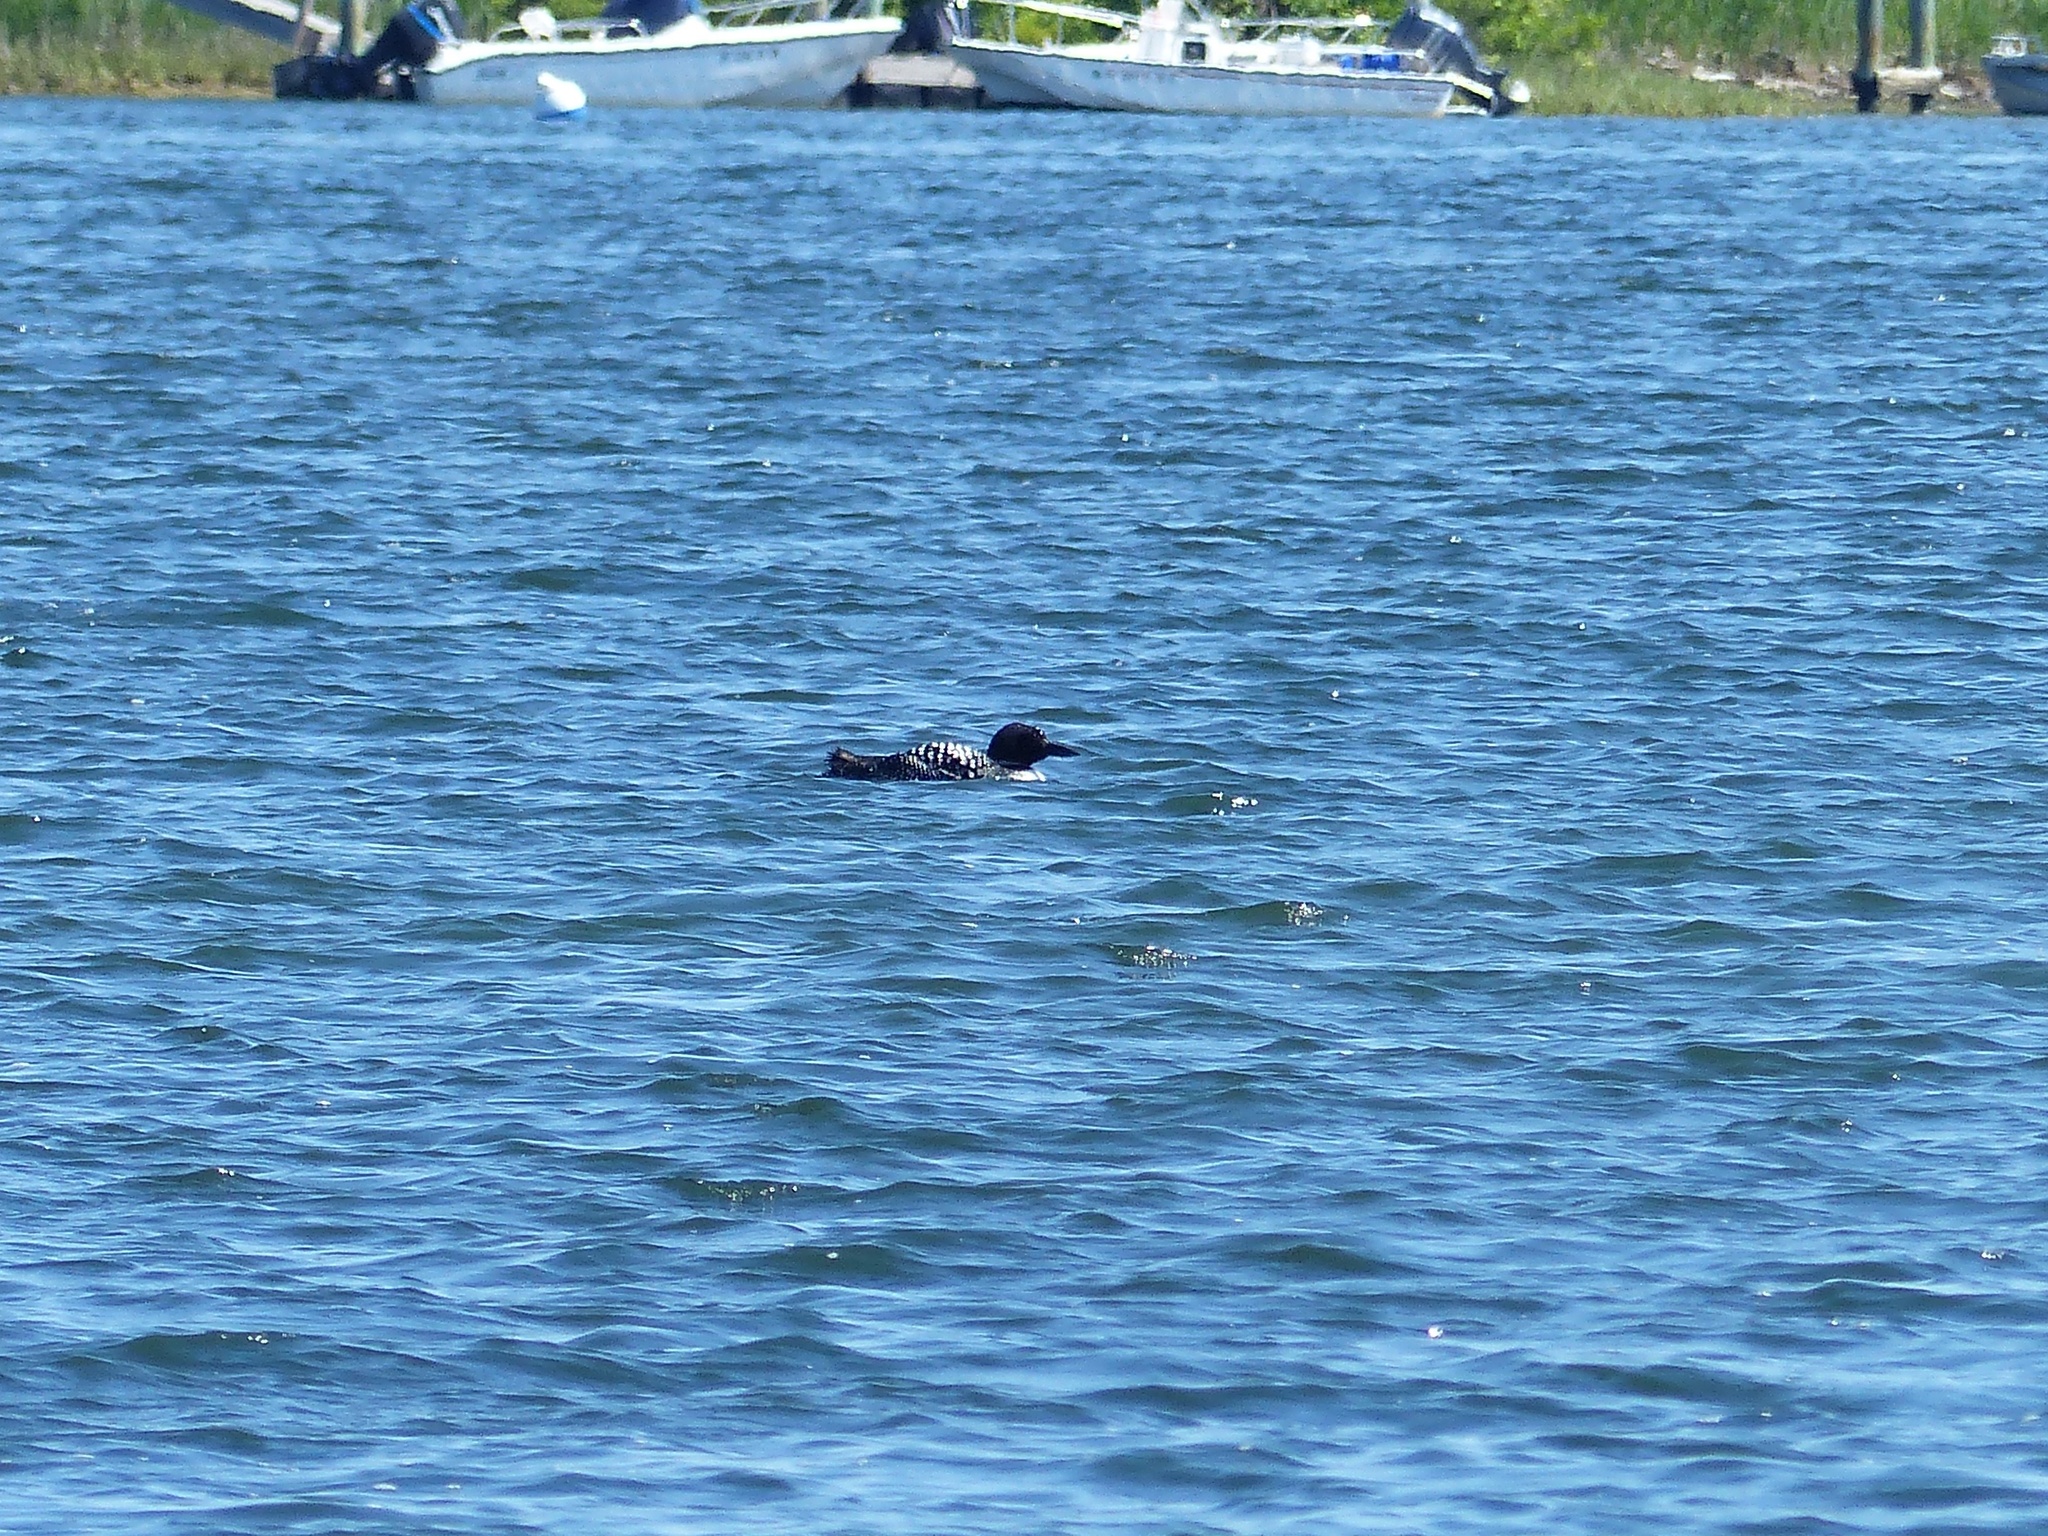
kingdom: Animalia
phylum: Chordata
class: Aves
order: Gaviiformes
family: Gaviidae
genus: Gavia
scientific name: Gavia immer
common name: Common loon
